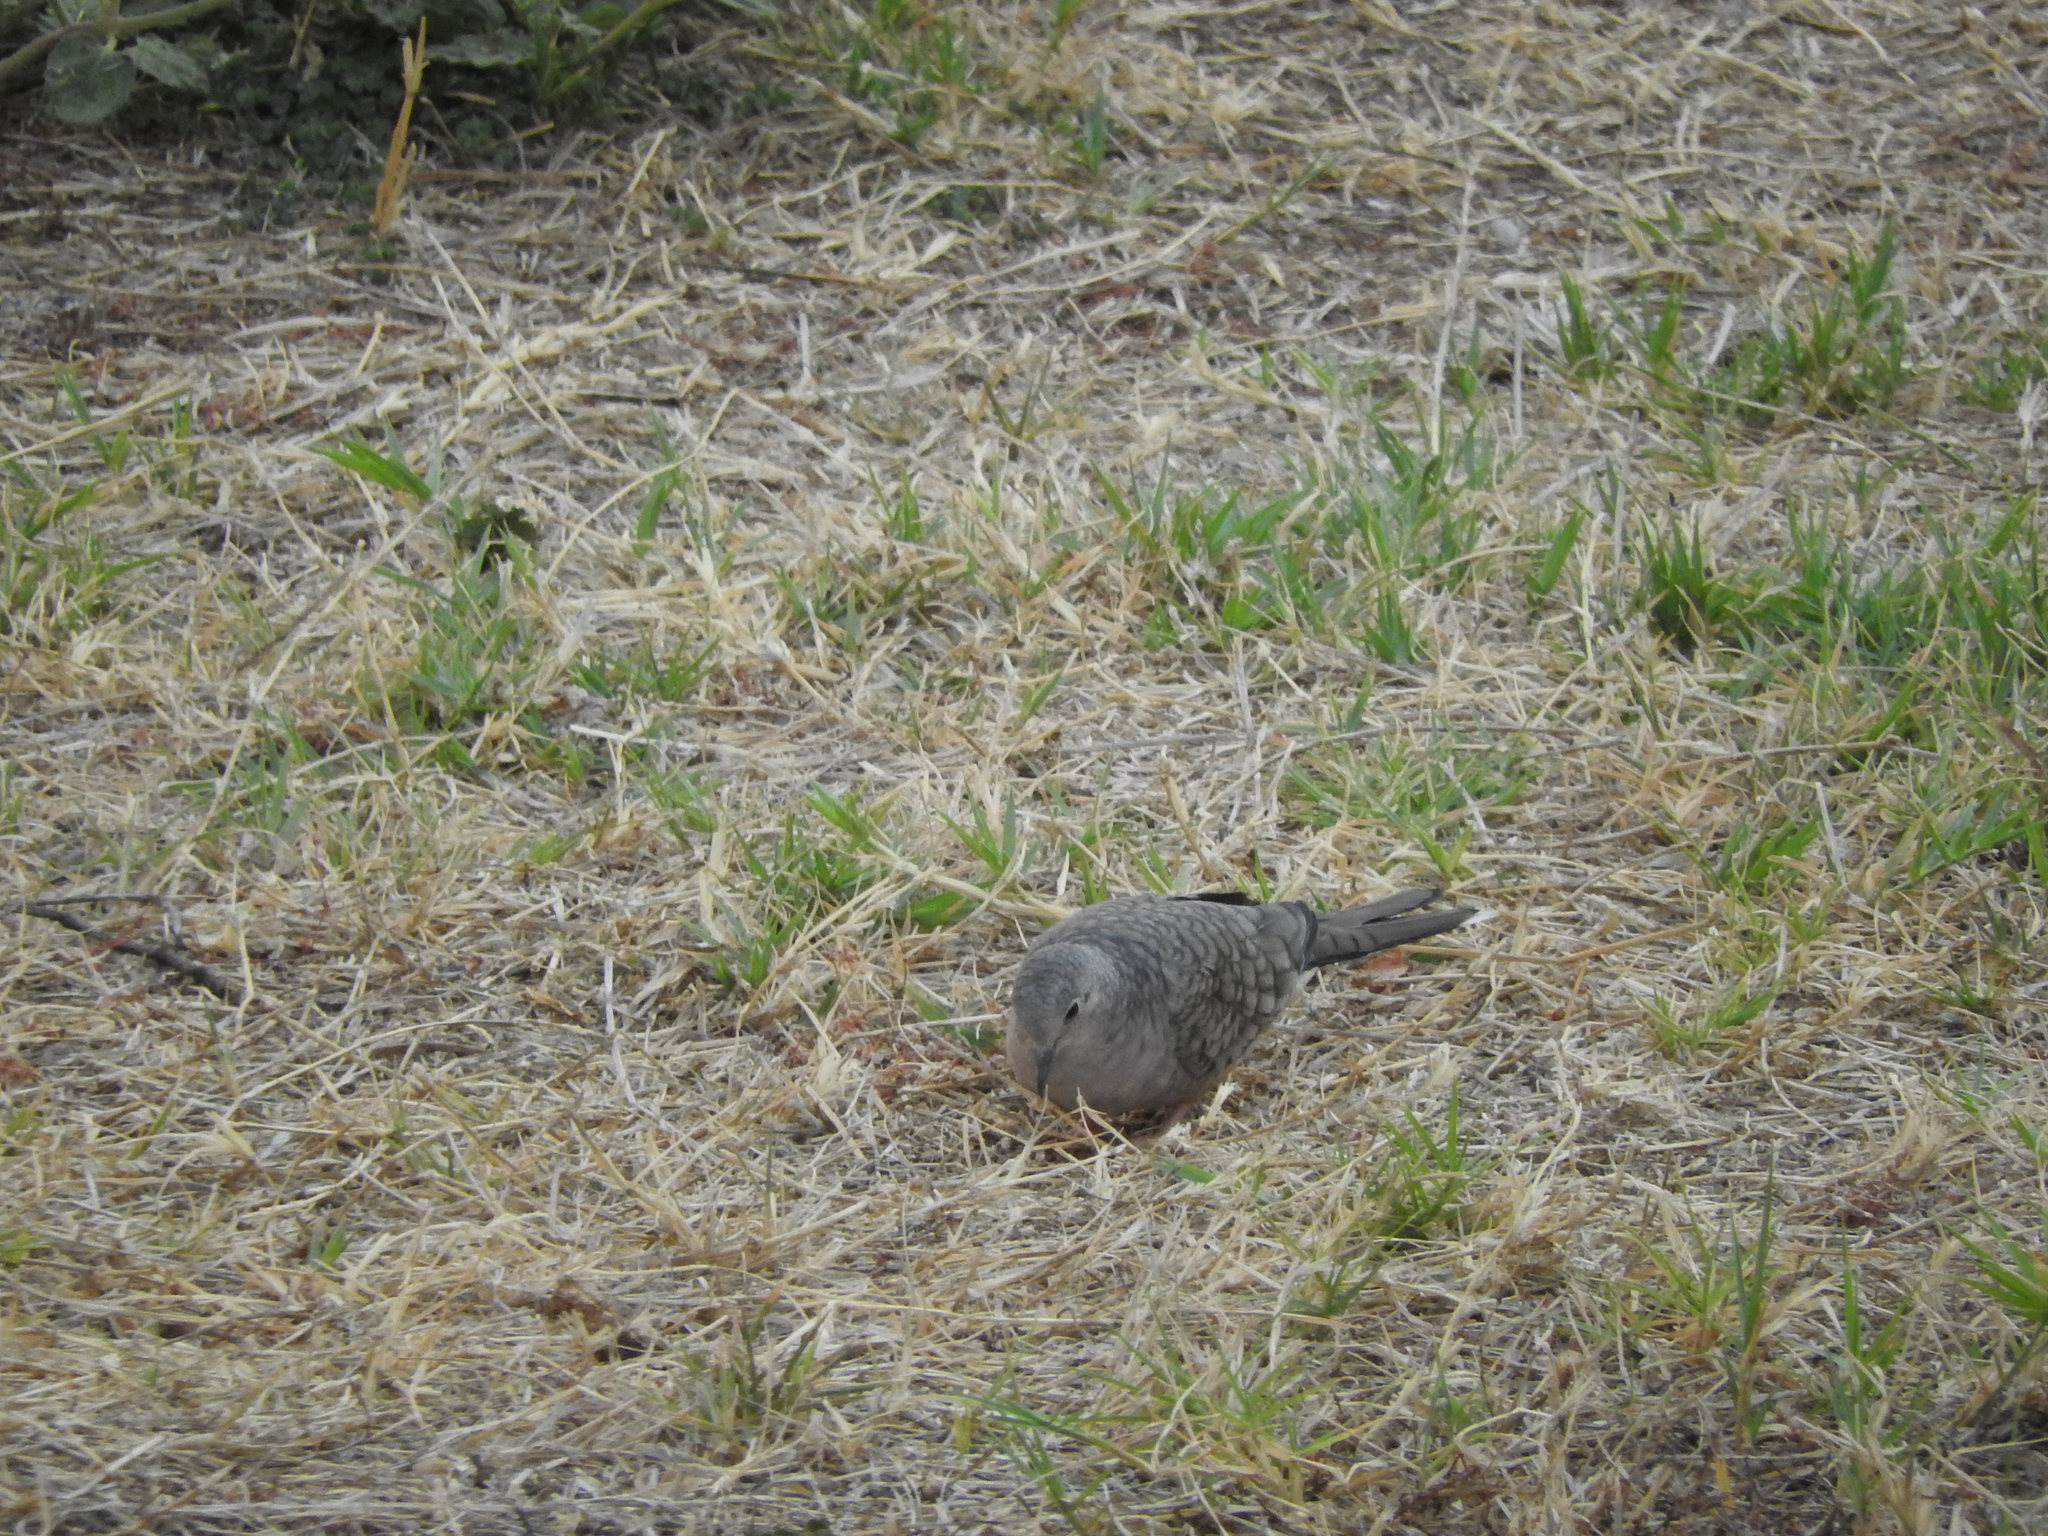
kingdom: Animalia
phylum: Chordata
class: Aves
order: Columbiformes
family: Columbidae
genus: Columbina
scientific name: Columbina inca
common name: Inca dove
